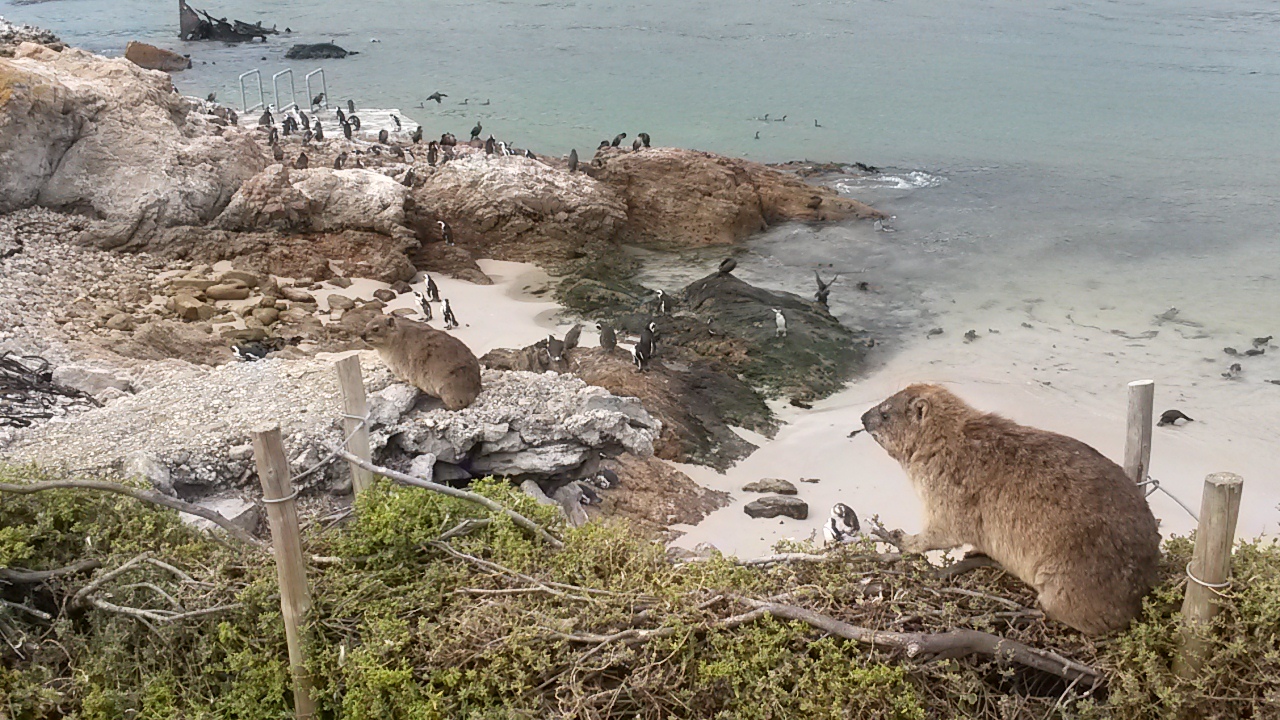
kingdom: Animalia
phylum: Chordata
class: Mammalia
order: Hyracoidea
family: Procaviidae
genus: Procavia
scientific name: Procavia capensis
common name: Rock hyrax
